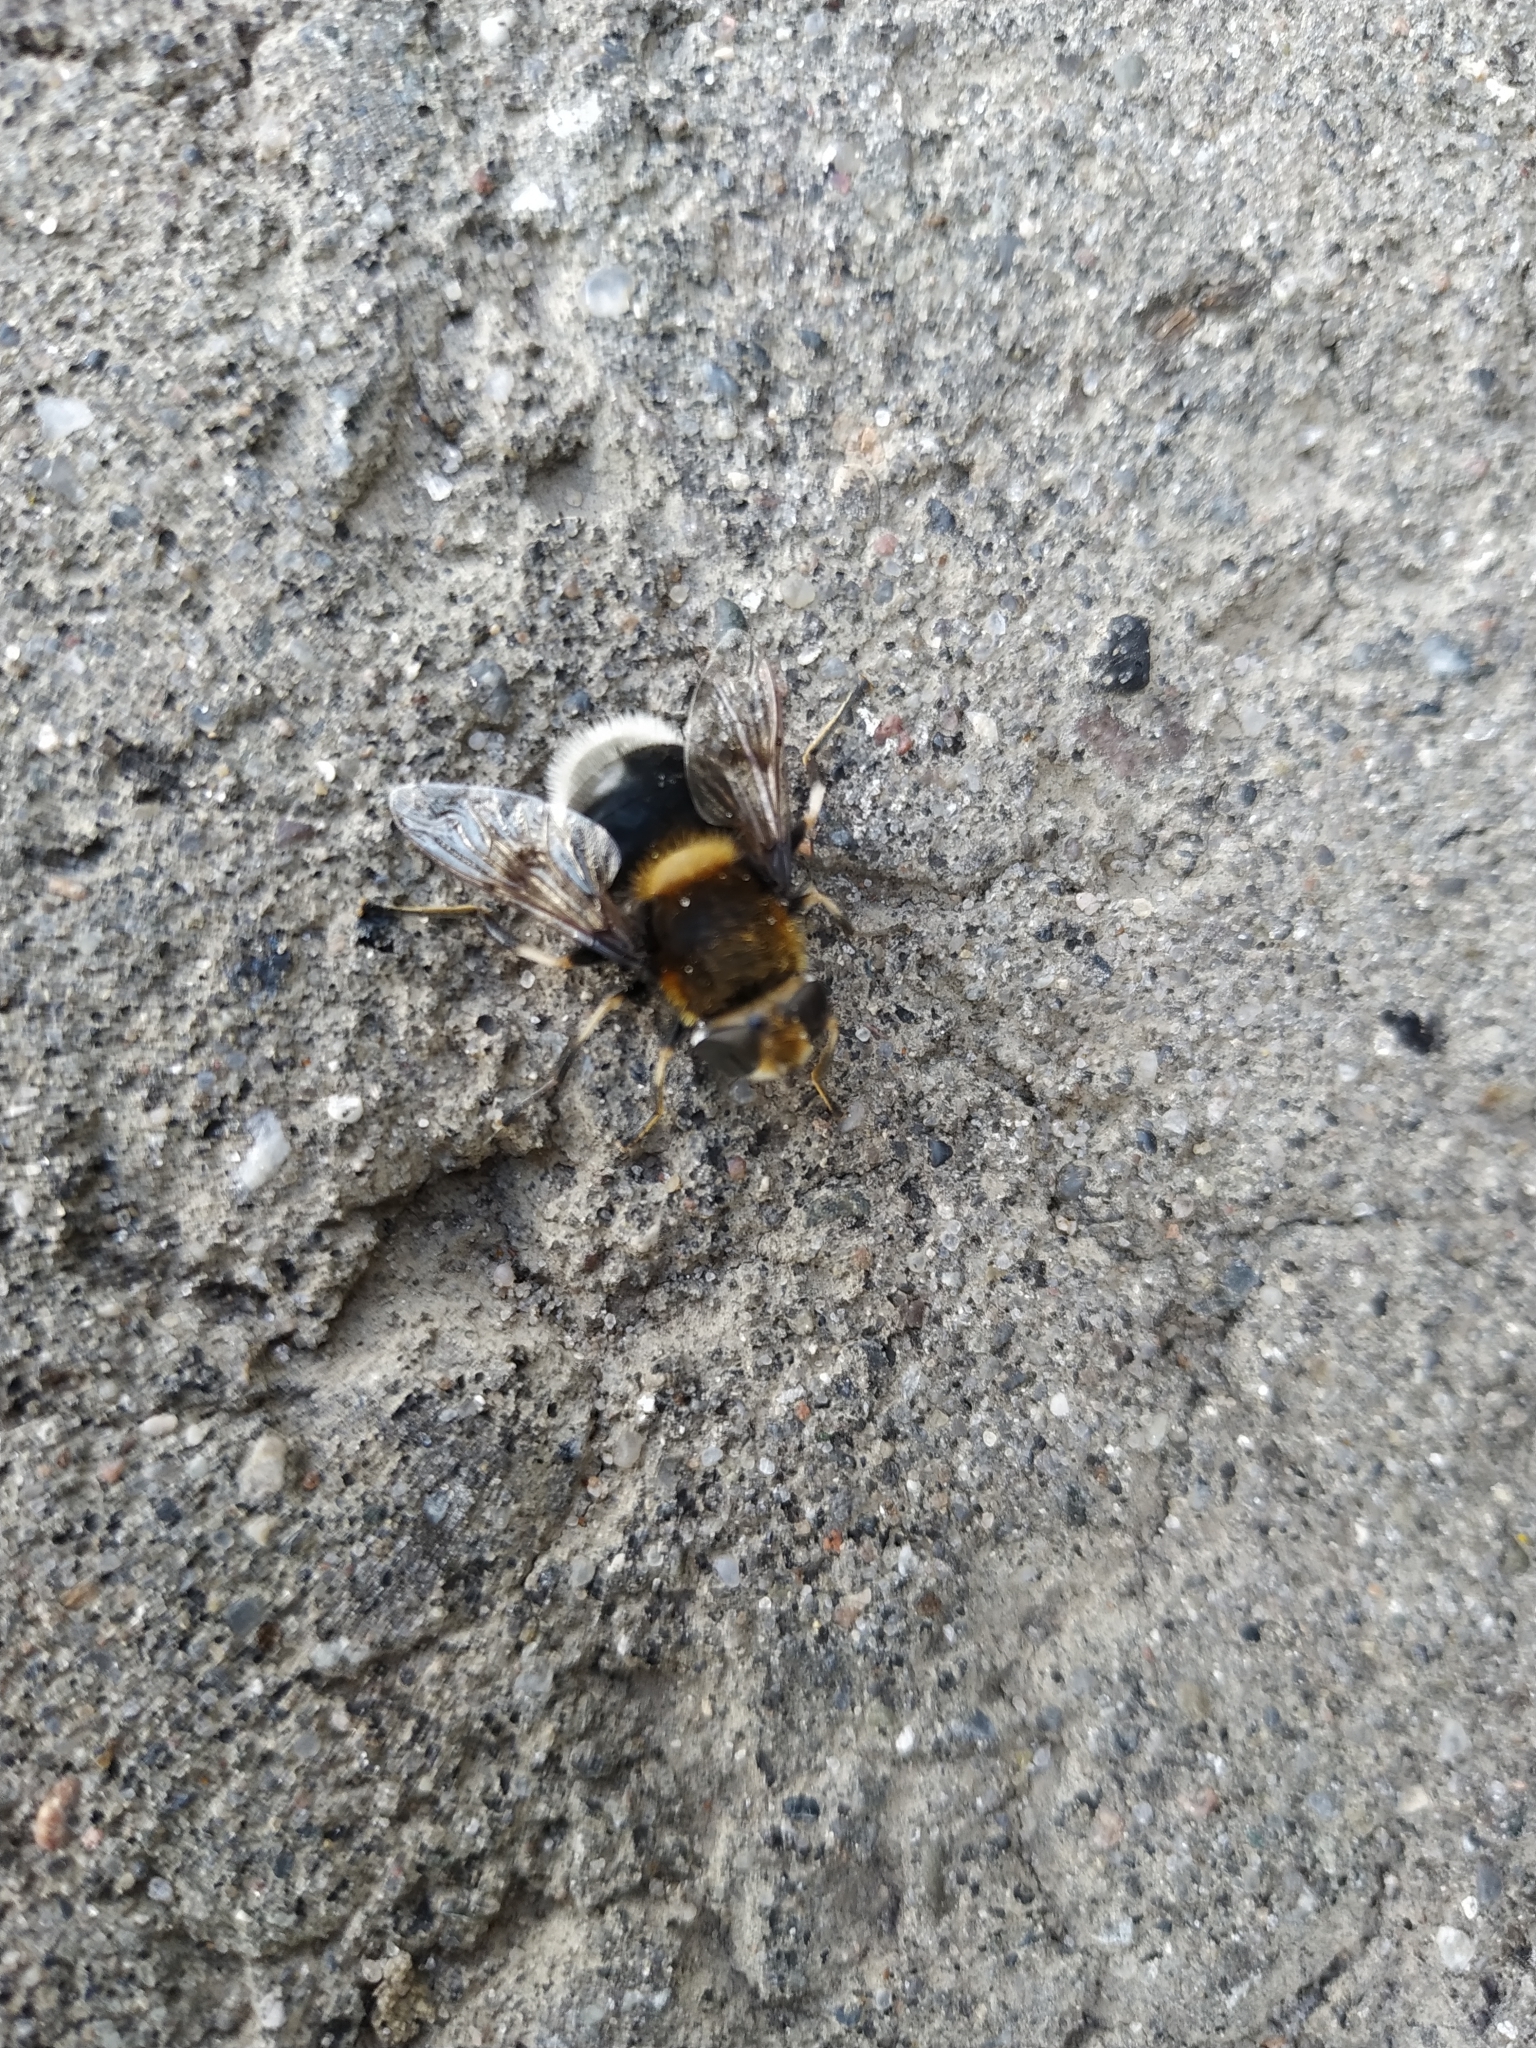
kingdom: Animalia
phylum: Arthropoda
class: Insecta
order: Diptera
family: Syrphidae
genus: Eristalis
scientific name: Eristalis intricaria
